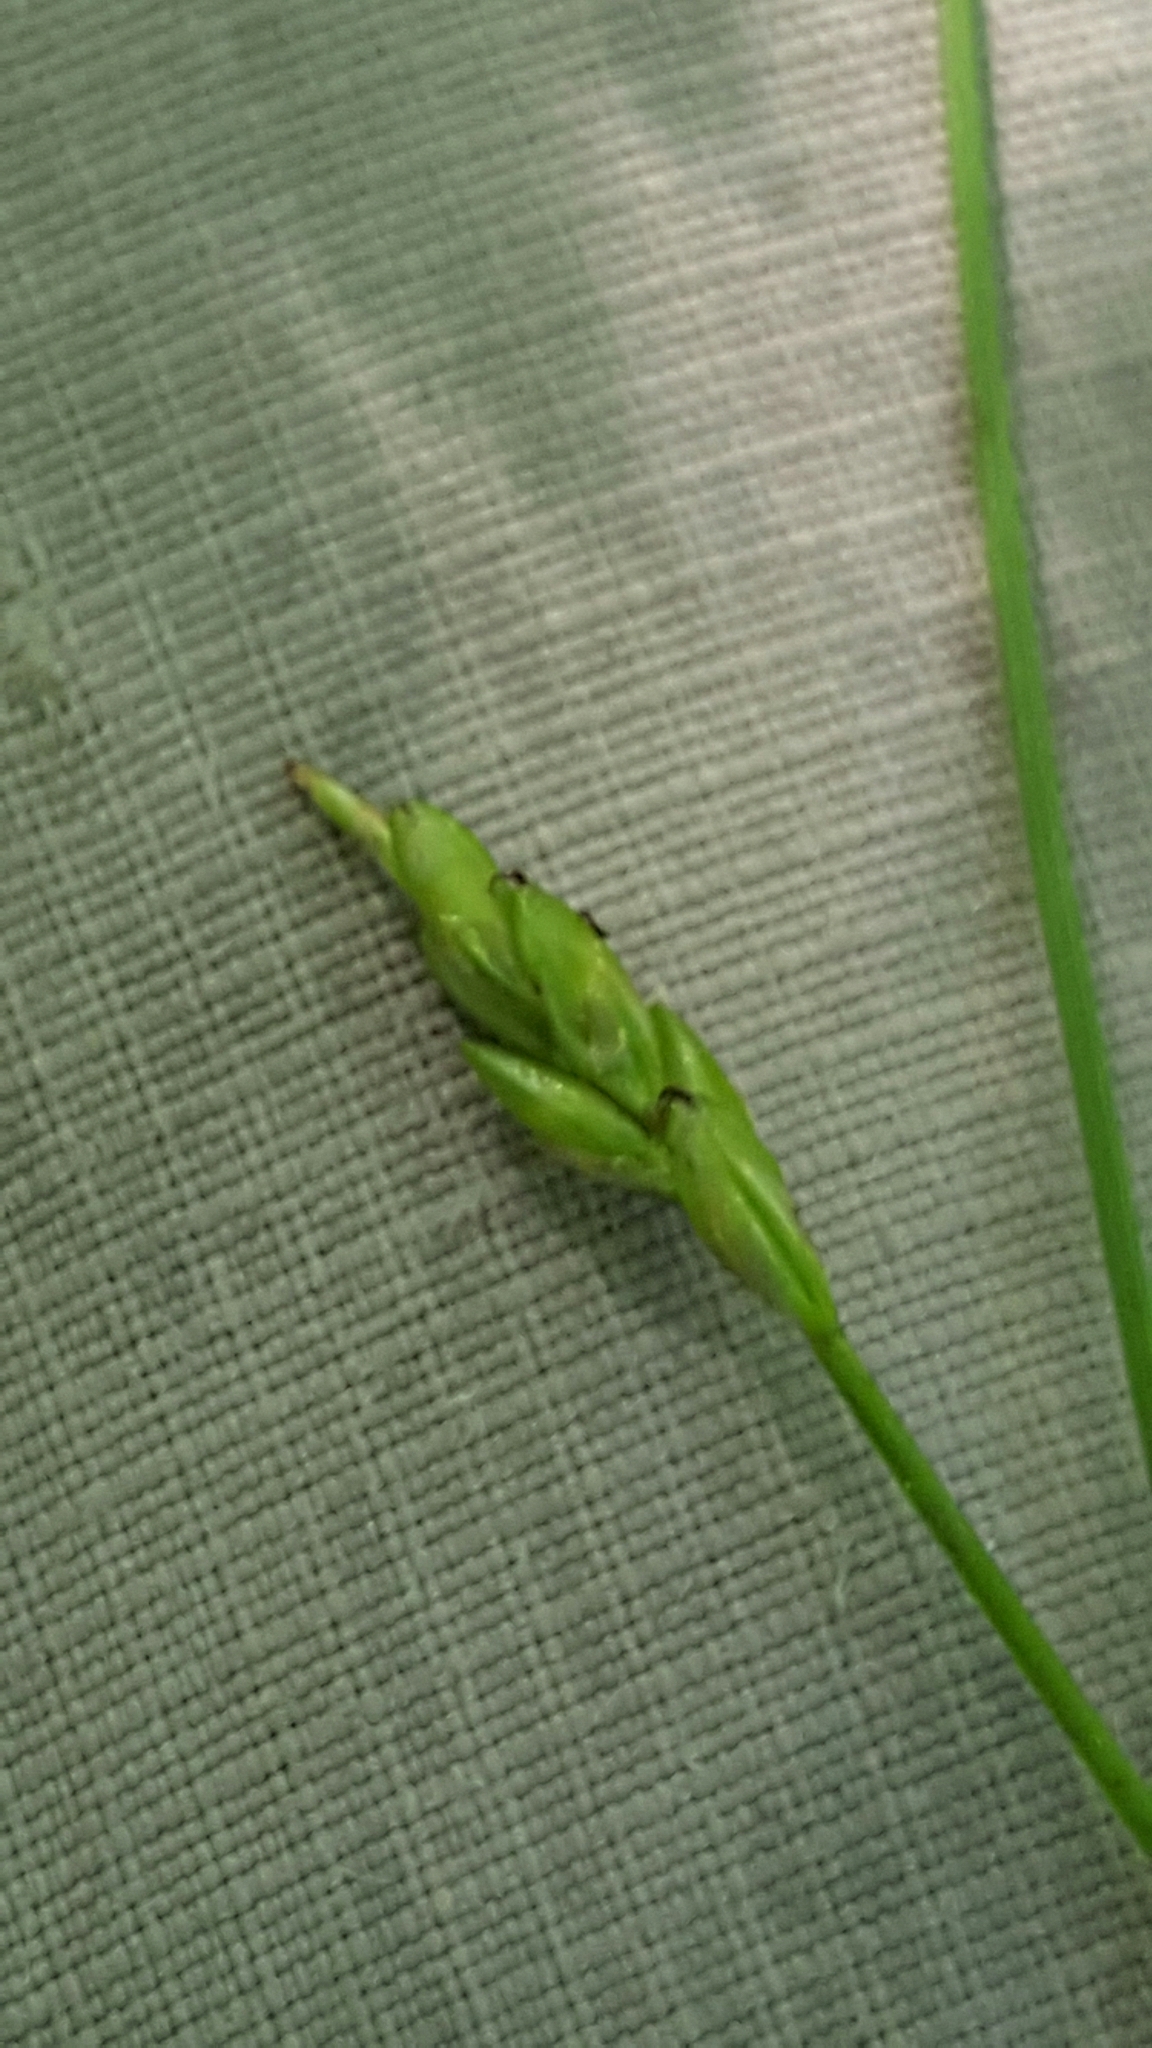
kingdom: Plantae
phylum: Tracheophyta
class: Liliopsida
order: Poales
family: Cyperaceae
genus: Carex
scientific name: Carex leptalea
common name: Bristly-stalked sedge
